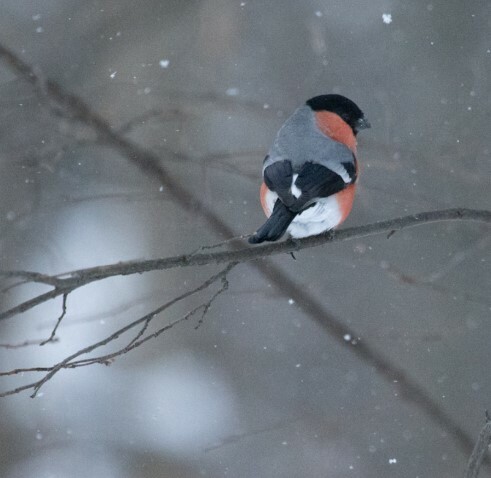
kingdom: Animalia
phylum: Chordata
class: Aves
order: Passeriformes
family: Fringillidae
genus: Pyrrhula
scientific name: Pyrrhula pyrrhula
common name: Eurasian bullfinch
